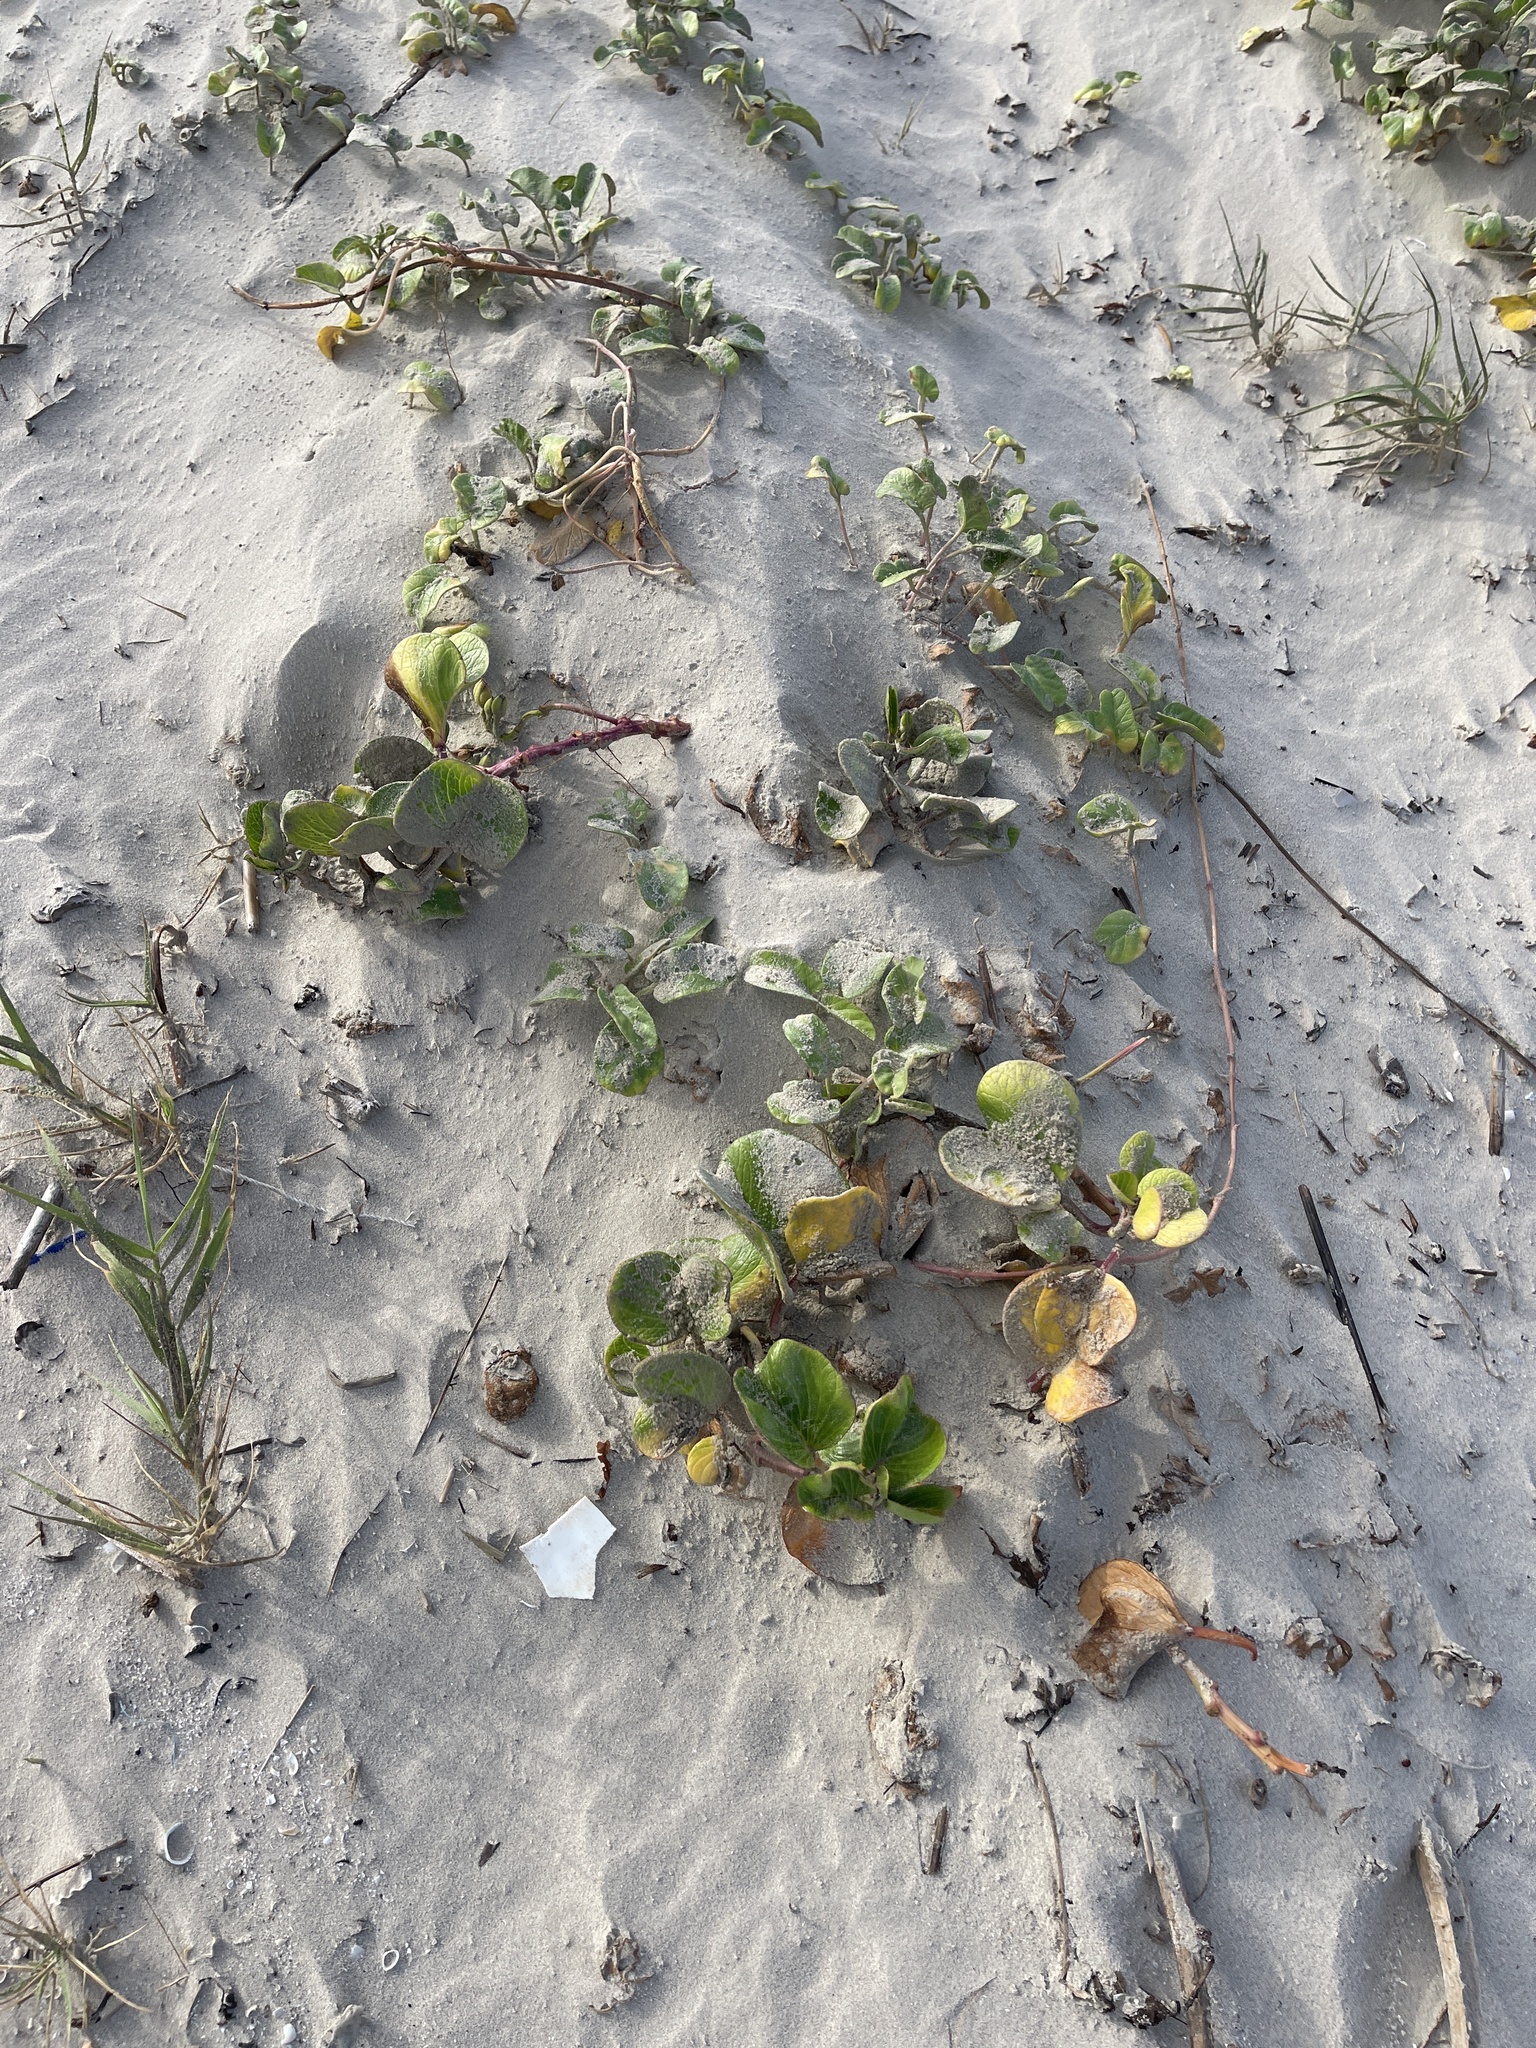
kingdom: Plantae
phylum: Tracheophyta
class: Magnoliopsida
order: Solanales
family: Convolvulaceae
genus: Ipomoea
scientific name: Ipomoea pes-caprae
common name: Beach morning glory
